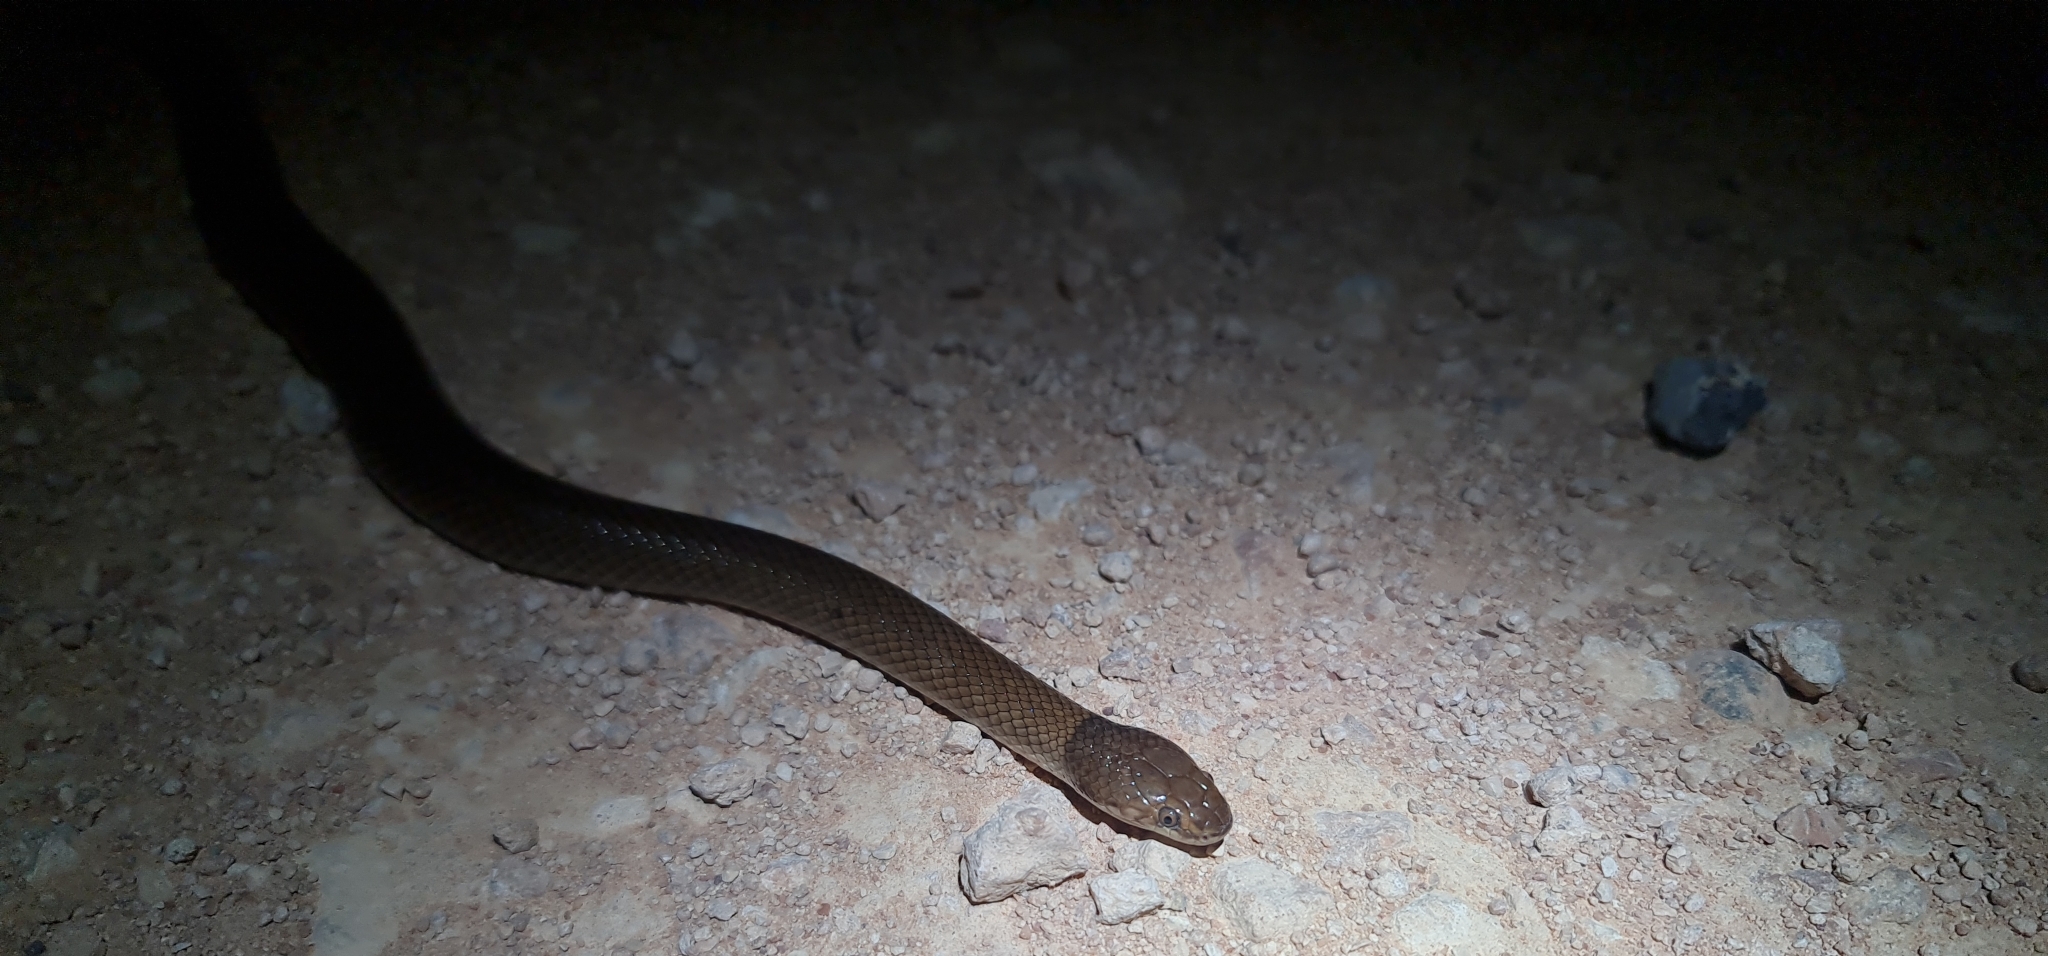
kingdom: Animalia
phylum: Chordata
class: Squamata
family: Elapidae
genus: Suta
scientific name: Suta suta
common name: Curl snake
